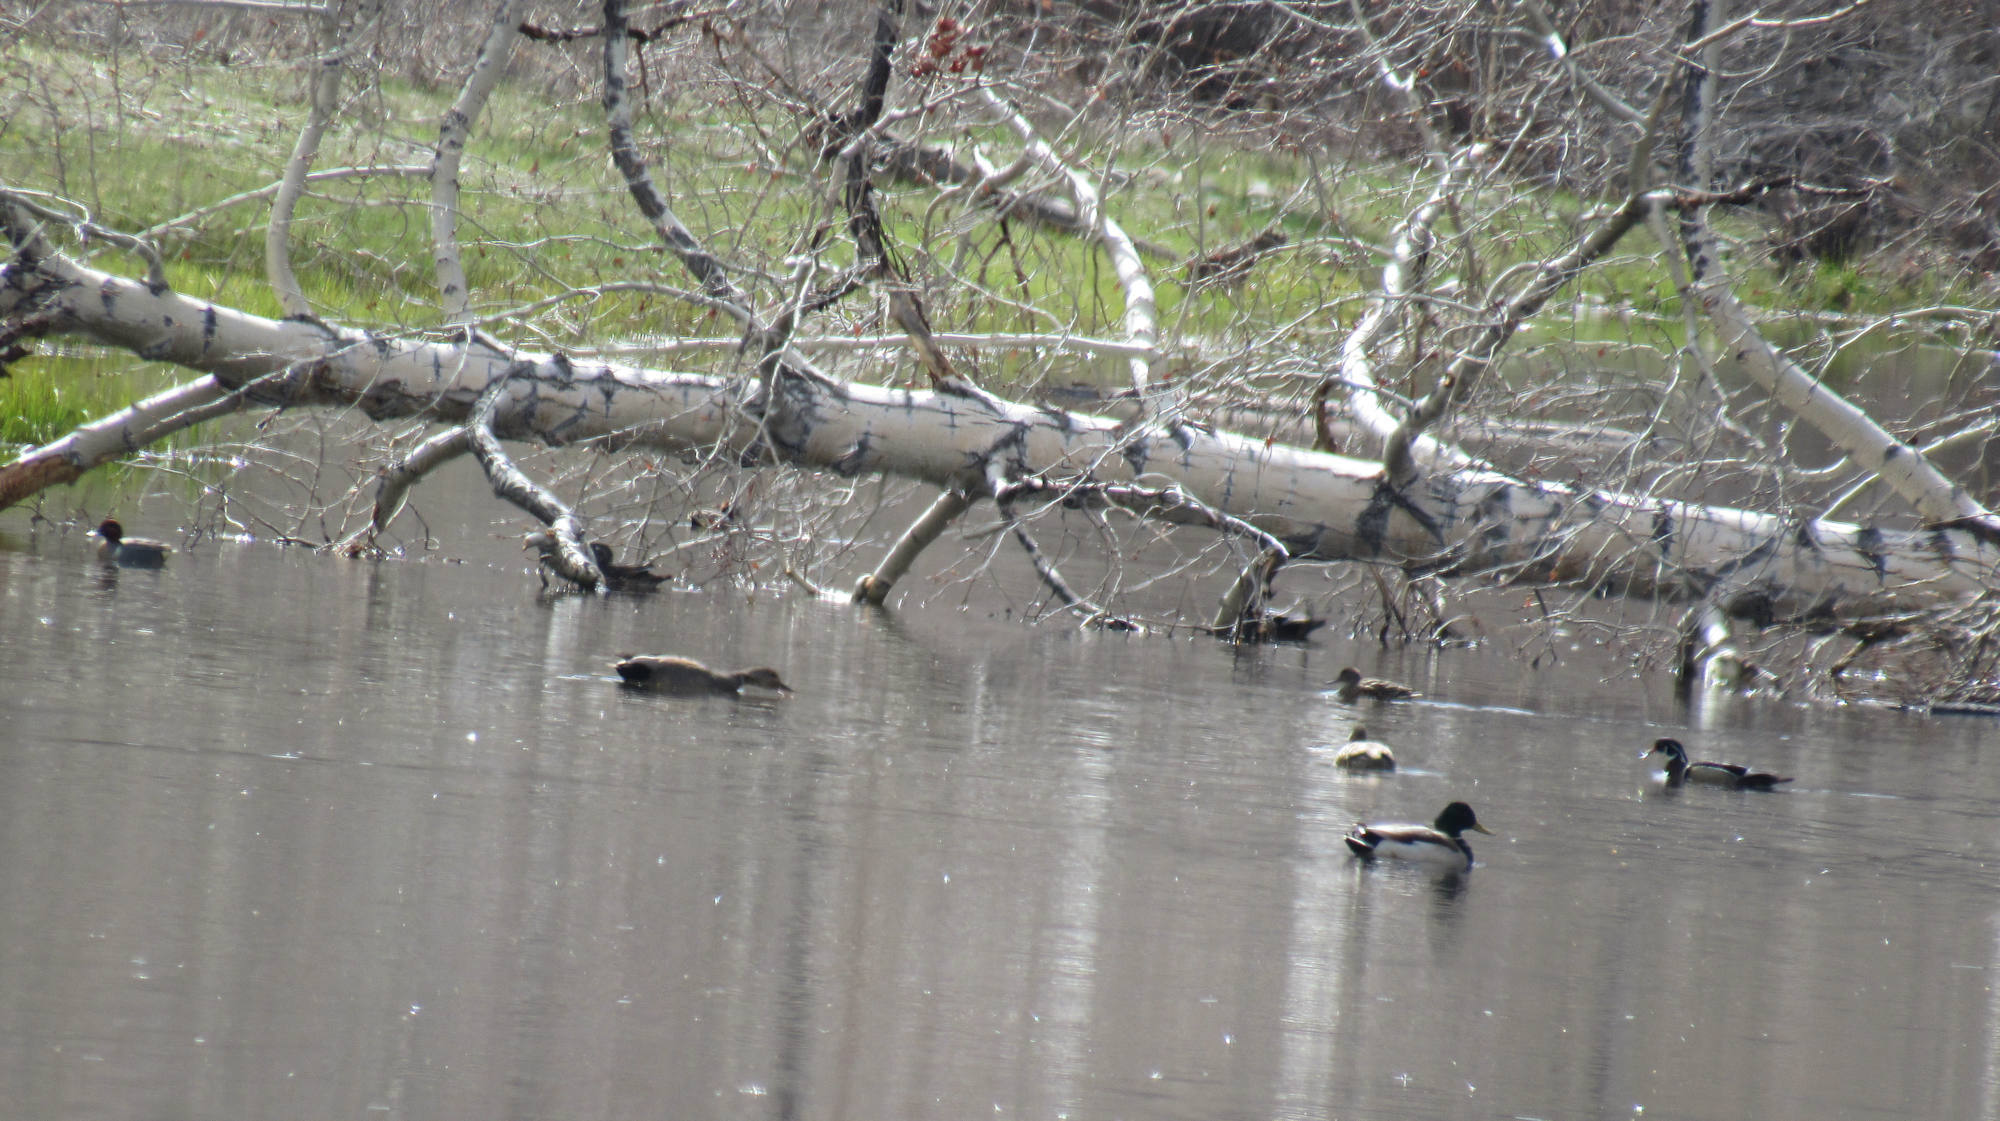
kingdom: Animalia
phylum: Chordata
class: Aves
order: Anseriformes
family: Anatidae
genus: Anas
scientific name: Anas platyrhynchos
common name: Mallard
